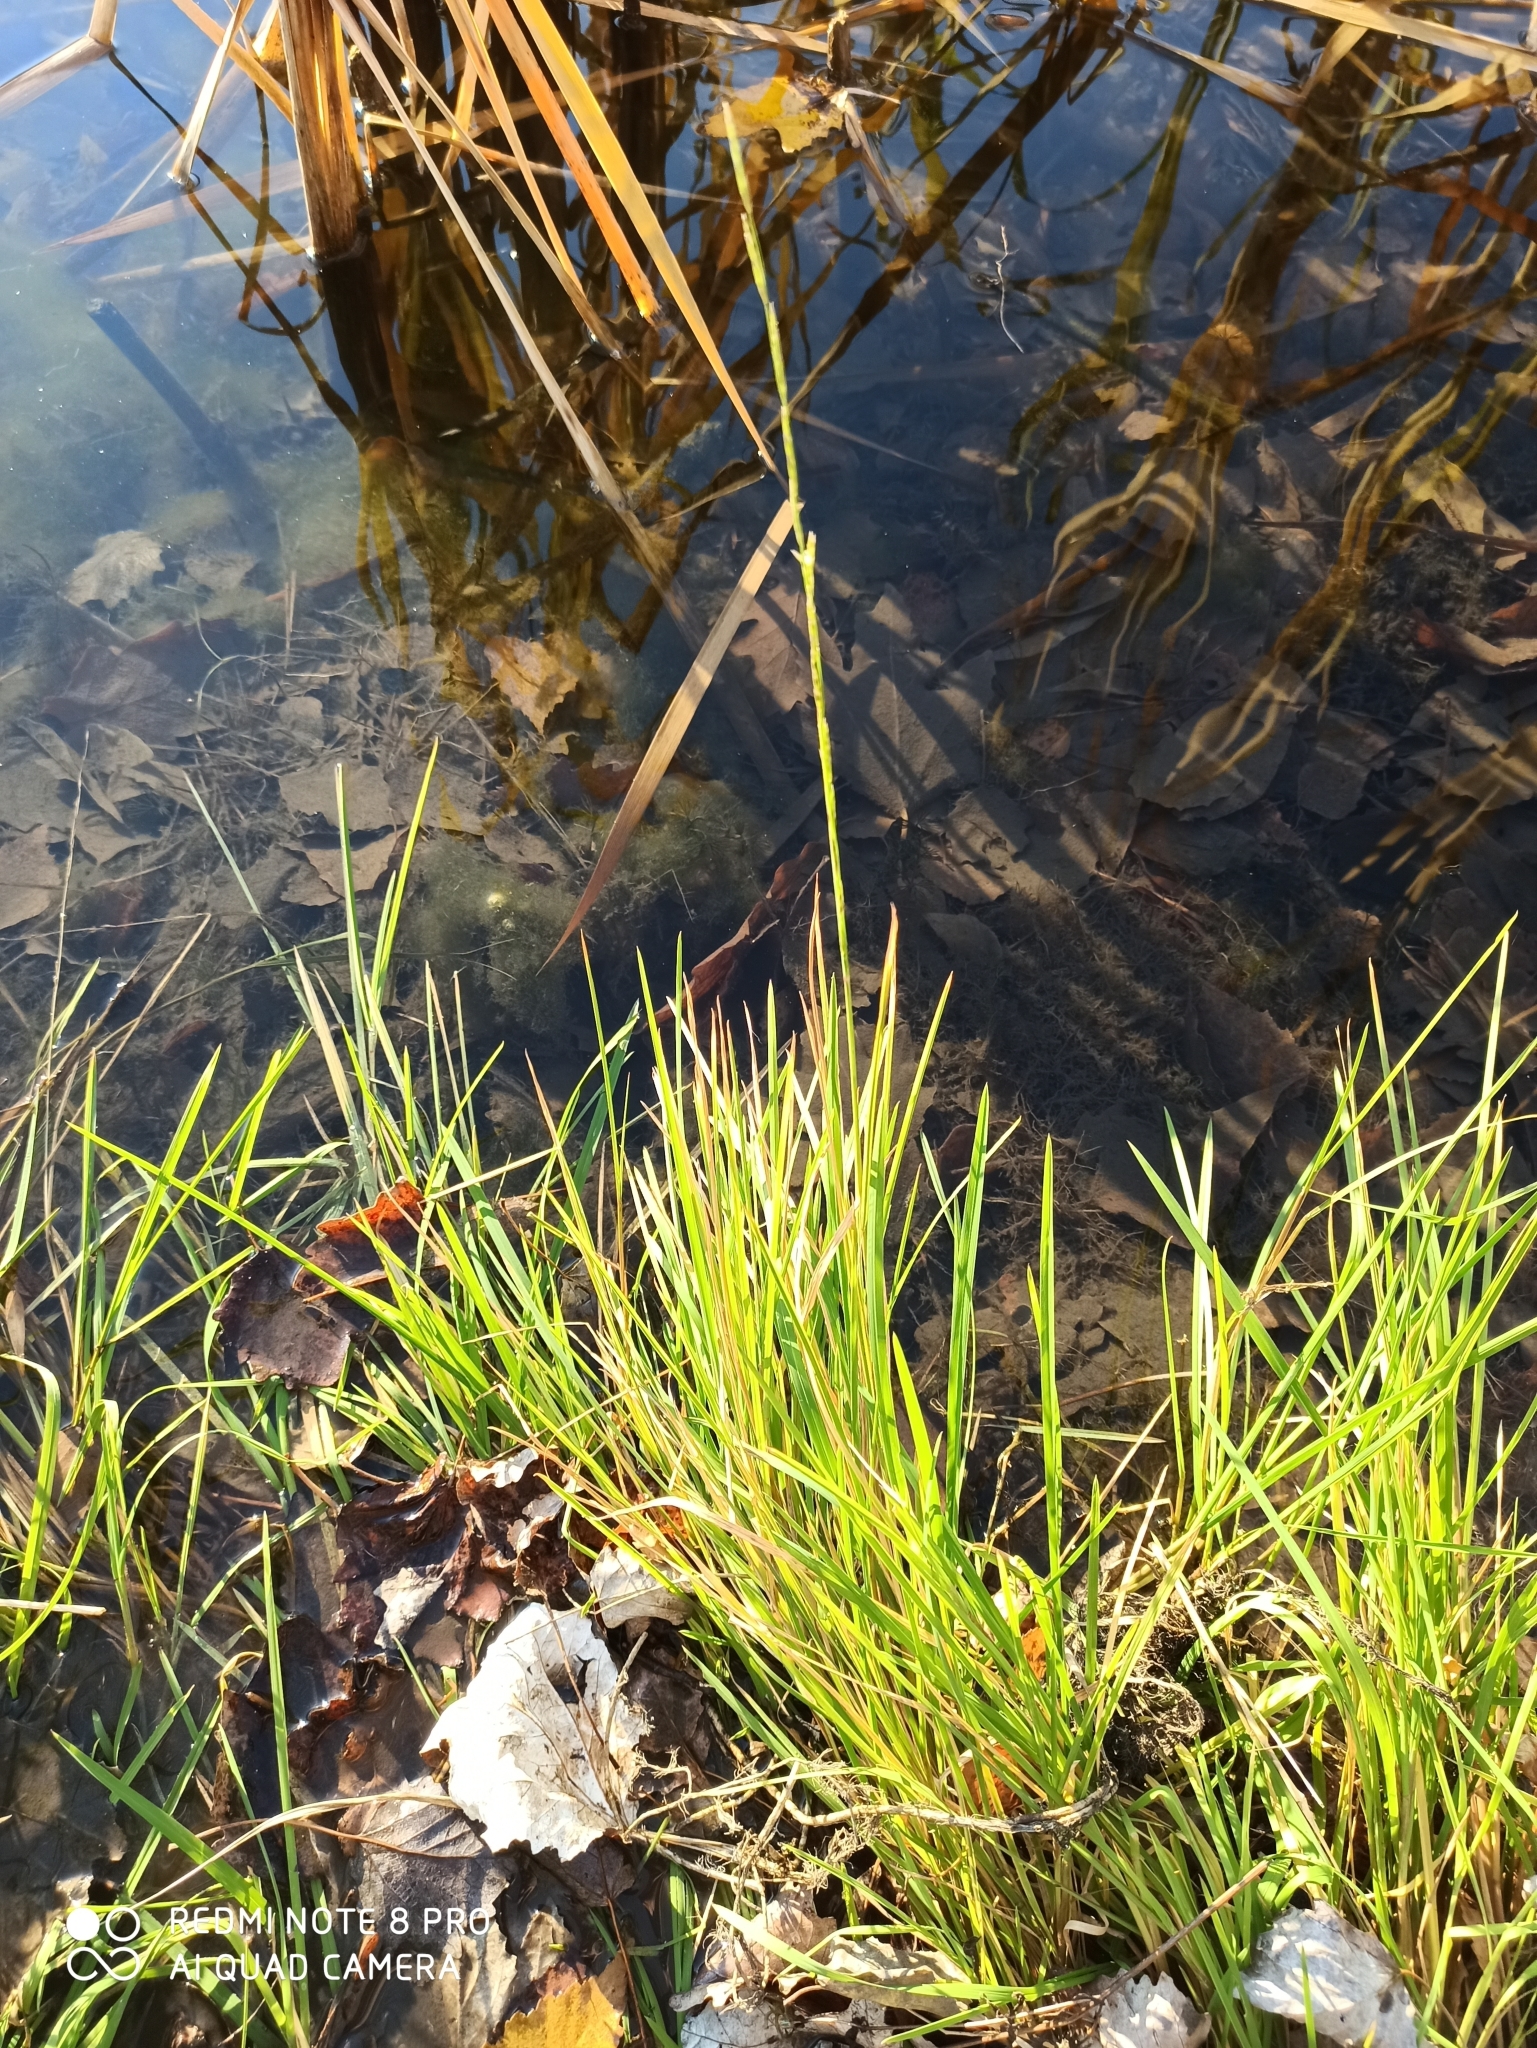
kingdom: Plantae
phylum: Tracheophyta
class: Liliopsida
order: Poales
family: Poaceae
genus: Glyceria
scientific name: Glyceria fluitans
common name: Floating sweet-grass
